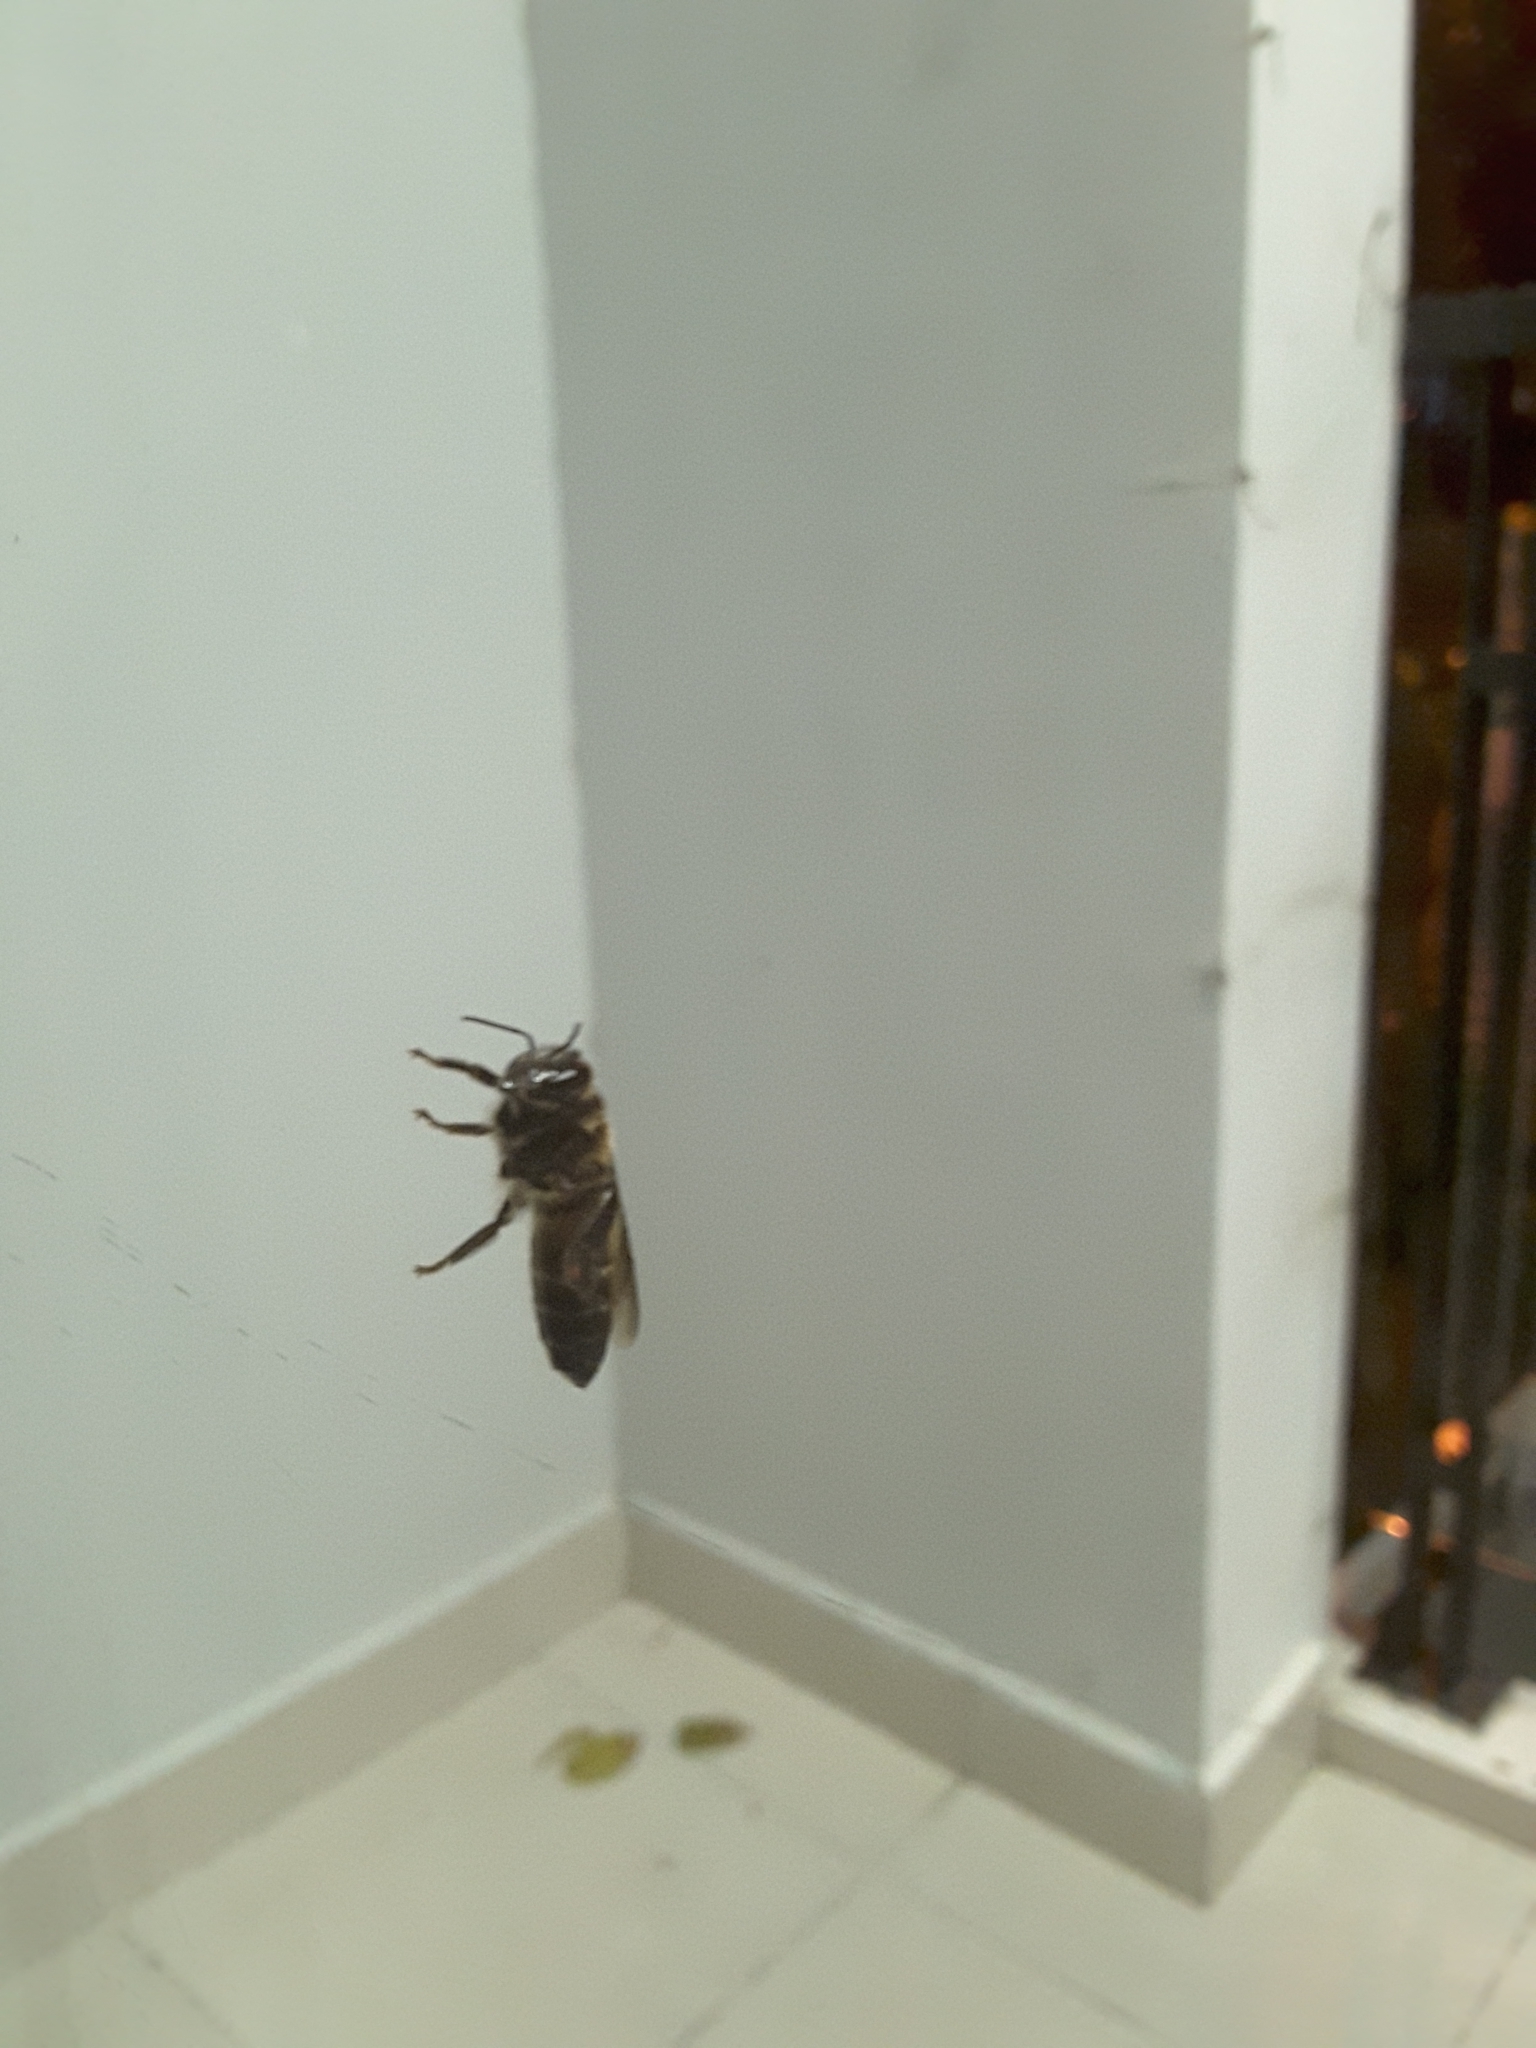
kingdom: Animalia
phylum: Arthropoda
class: Insecta
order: Hymenoptera
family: Apidae
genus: Apis
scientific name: Apis dorsata
